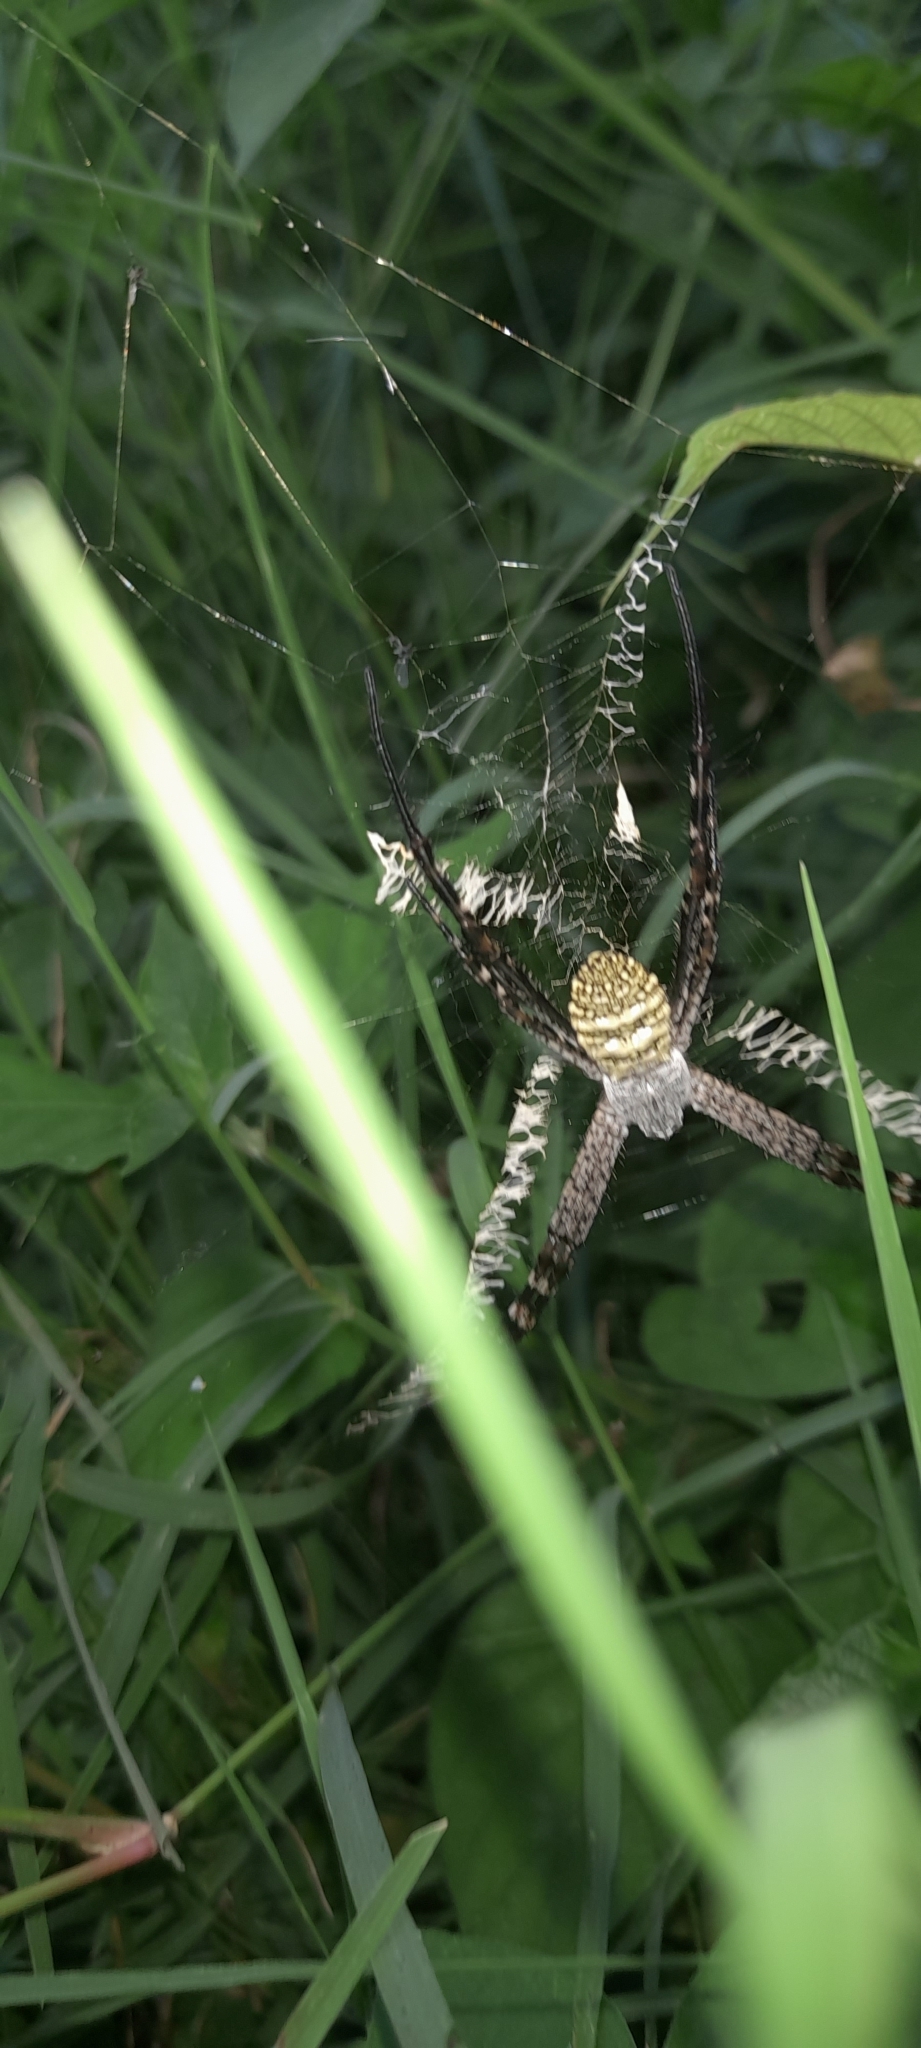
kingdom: Animalia
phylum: Arthropoda
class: Arachnida
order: Araneae
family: Araneidae
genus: Argiope
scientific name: Argiope aemula
